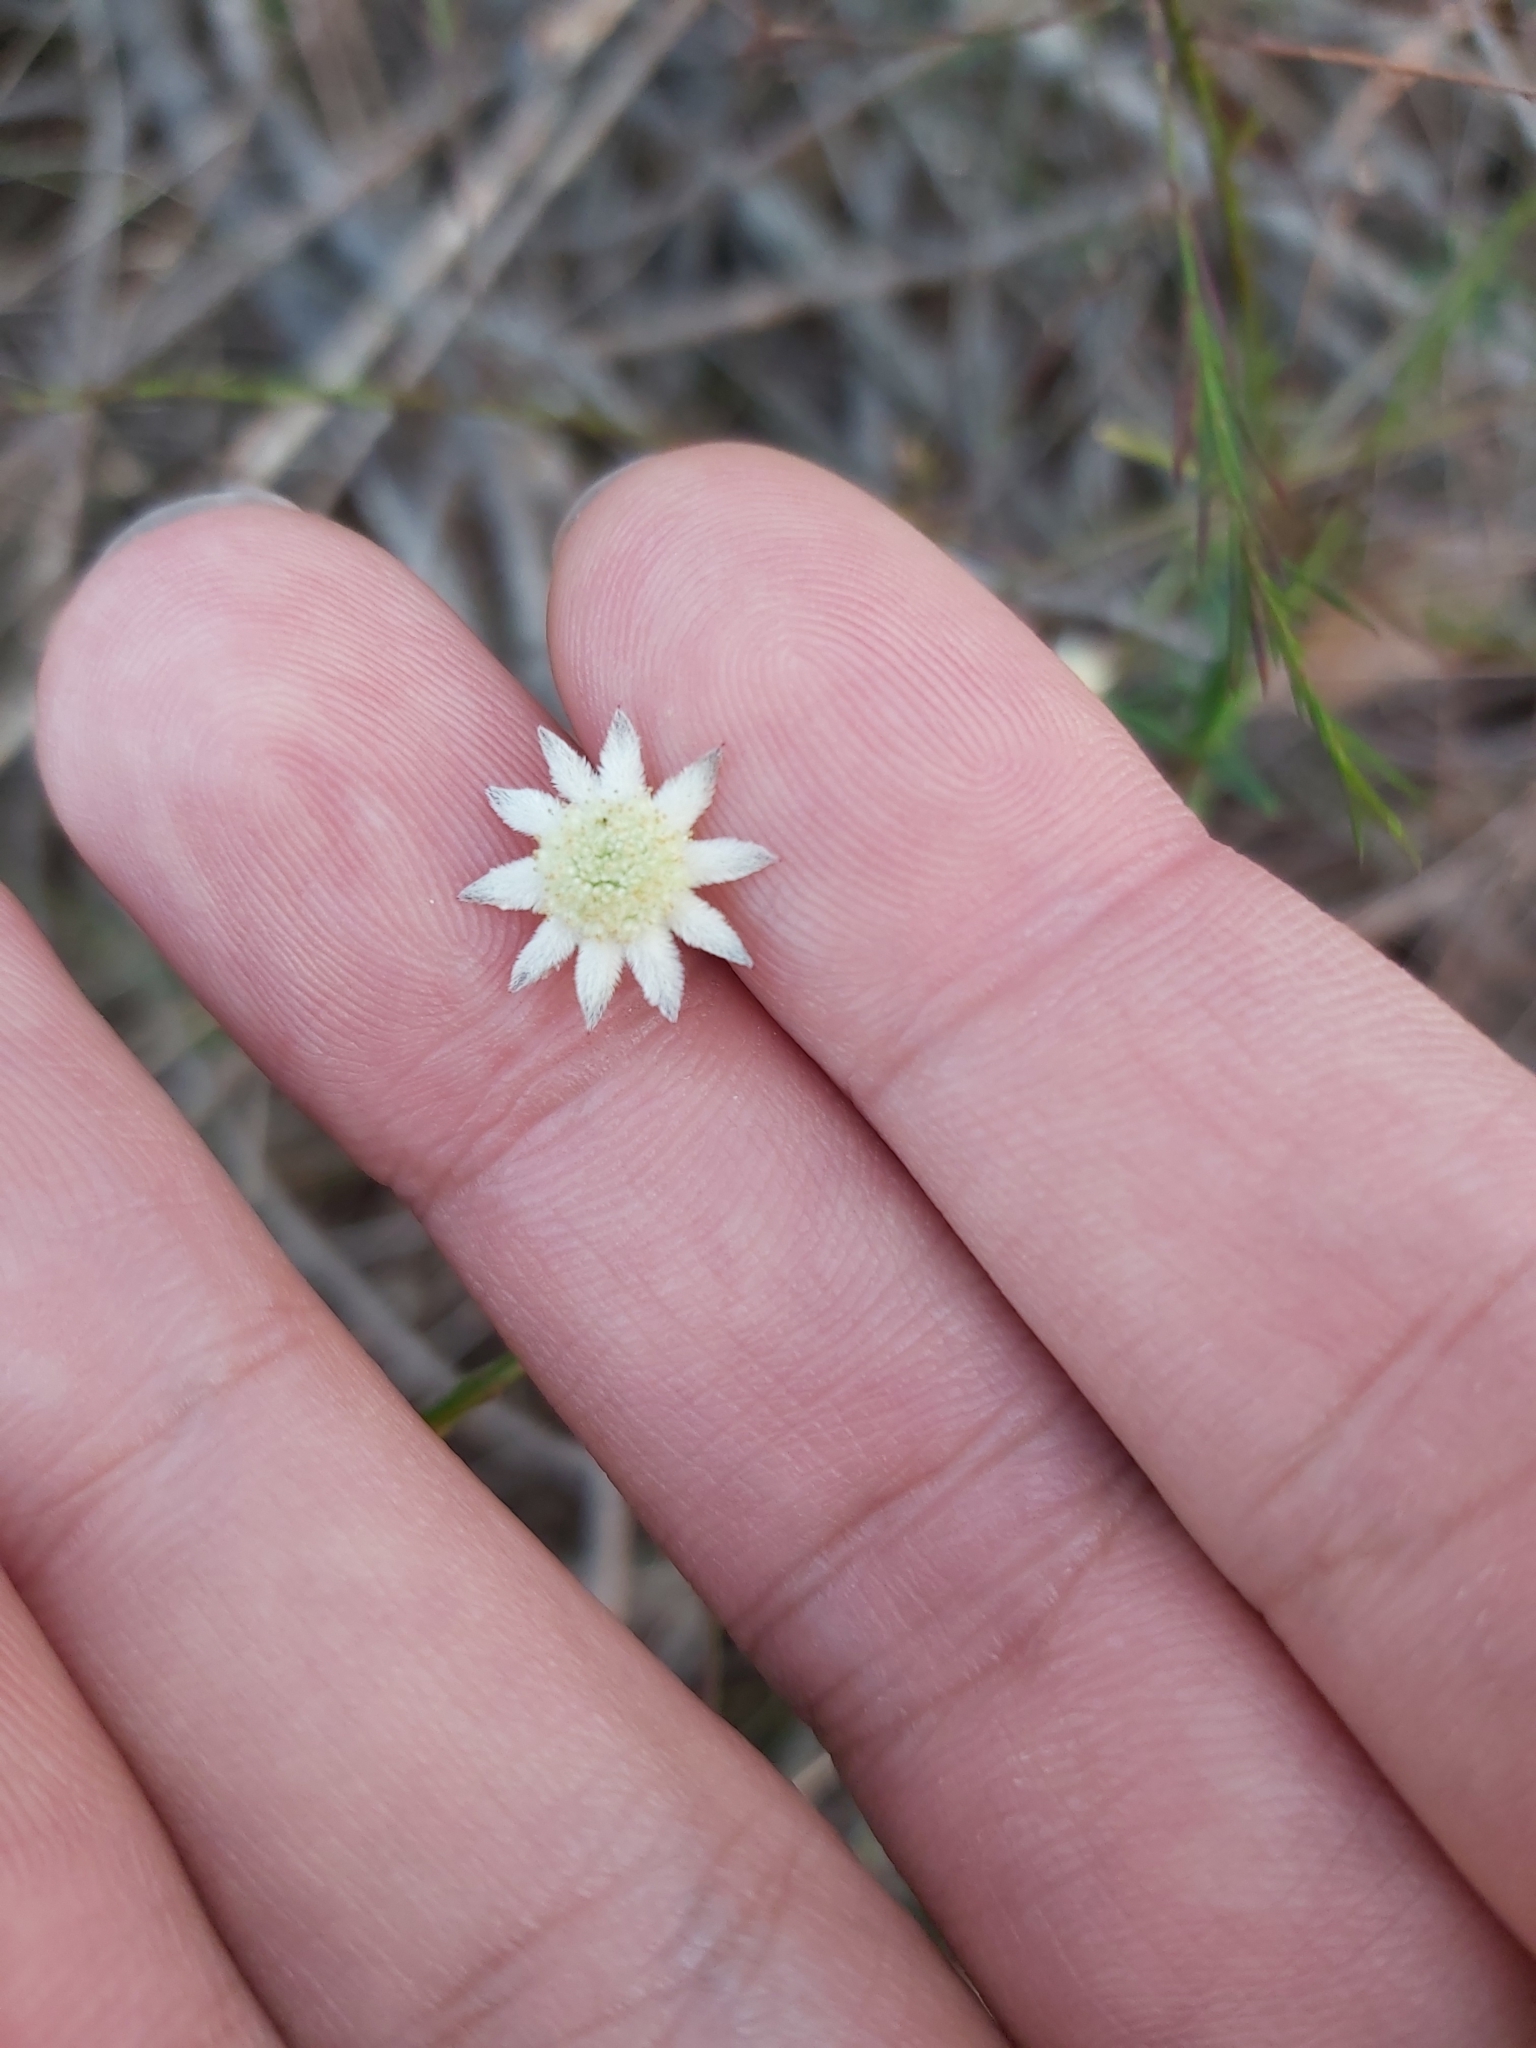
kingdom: Plantae
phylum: Tracheophyta
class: Magnoliopsida
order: Apiales
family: Apiaceae
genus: Actinotus
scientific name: Actinotus minor
